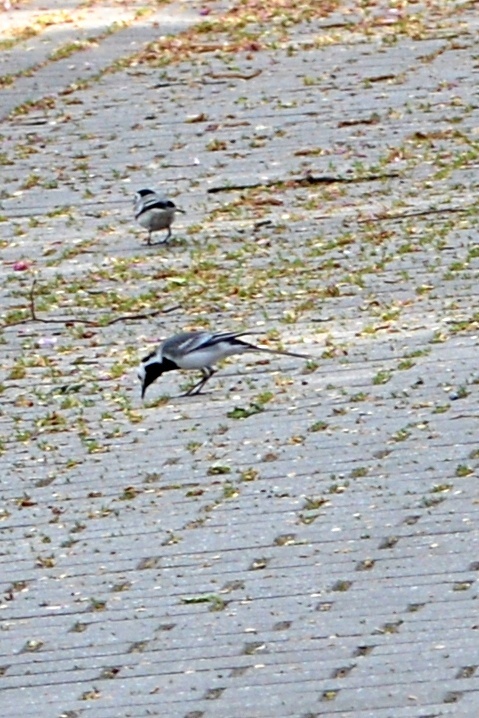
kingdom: Animalia
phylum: Chordata
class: Aves
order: Passeriformes
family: Motacillidae
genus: Motacilla
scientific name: Motacilla alba
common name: White wagtail
